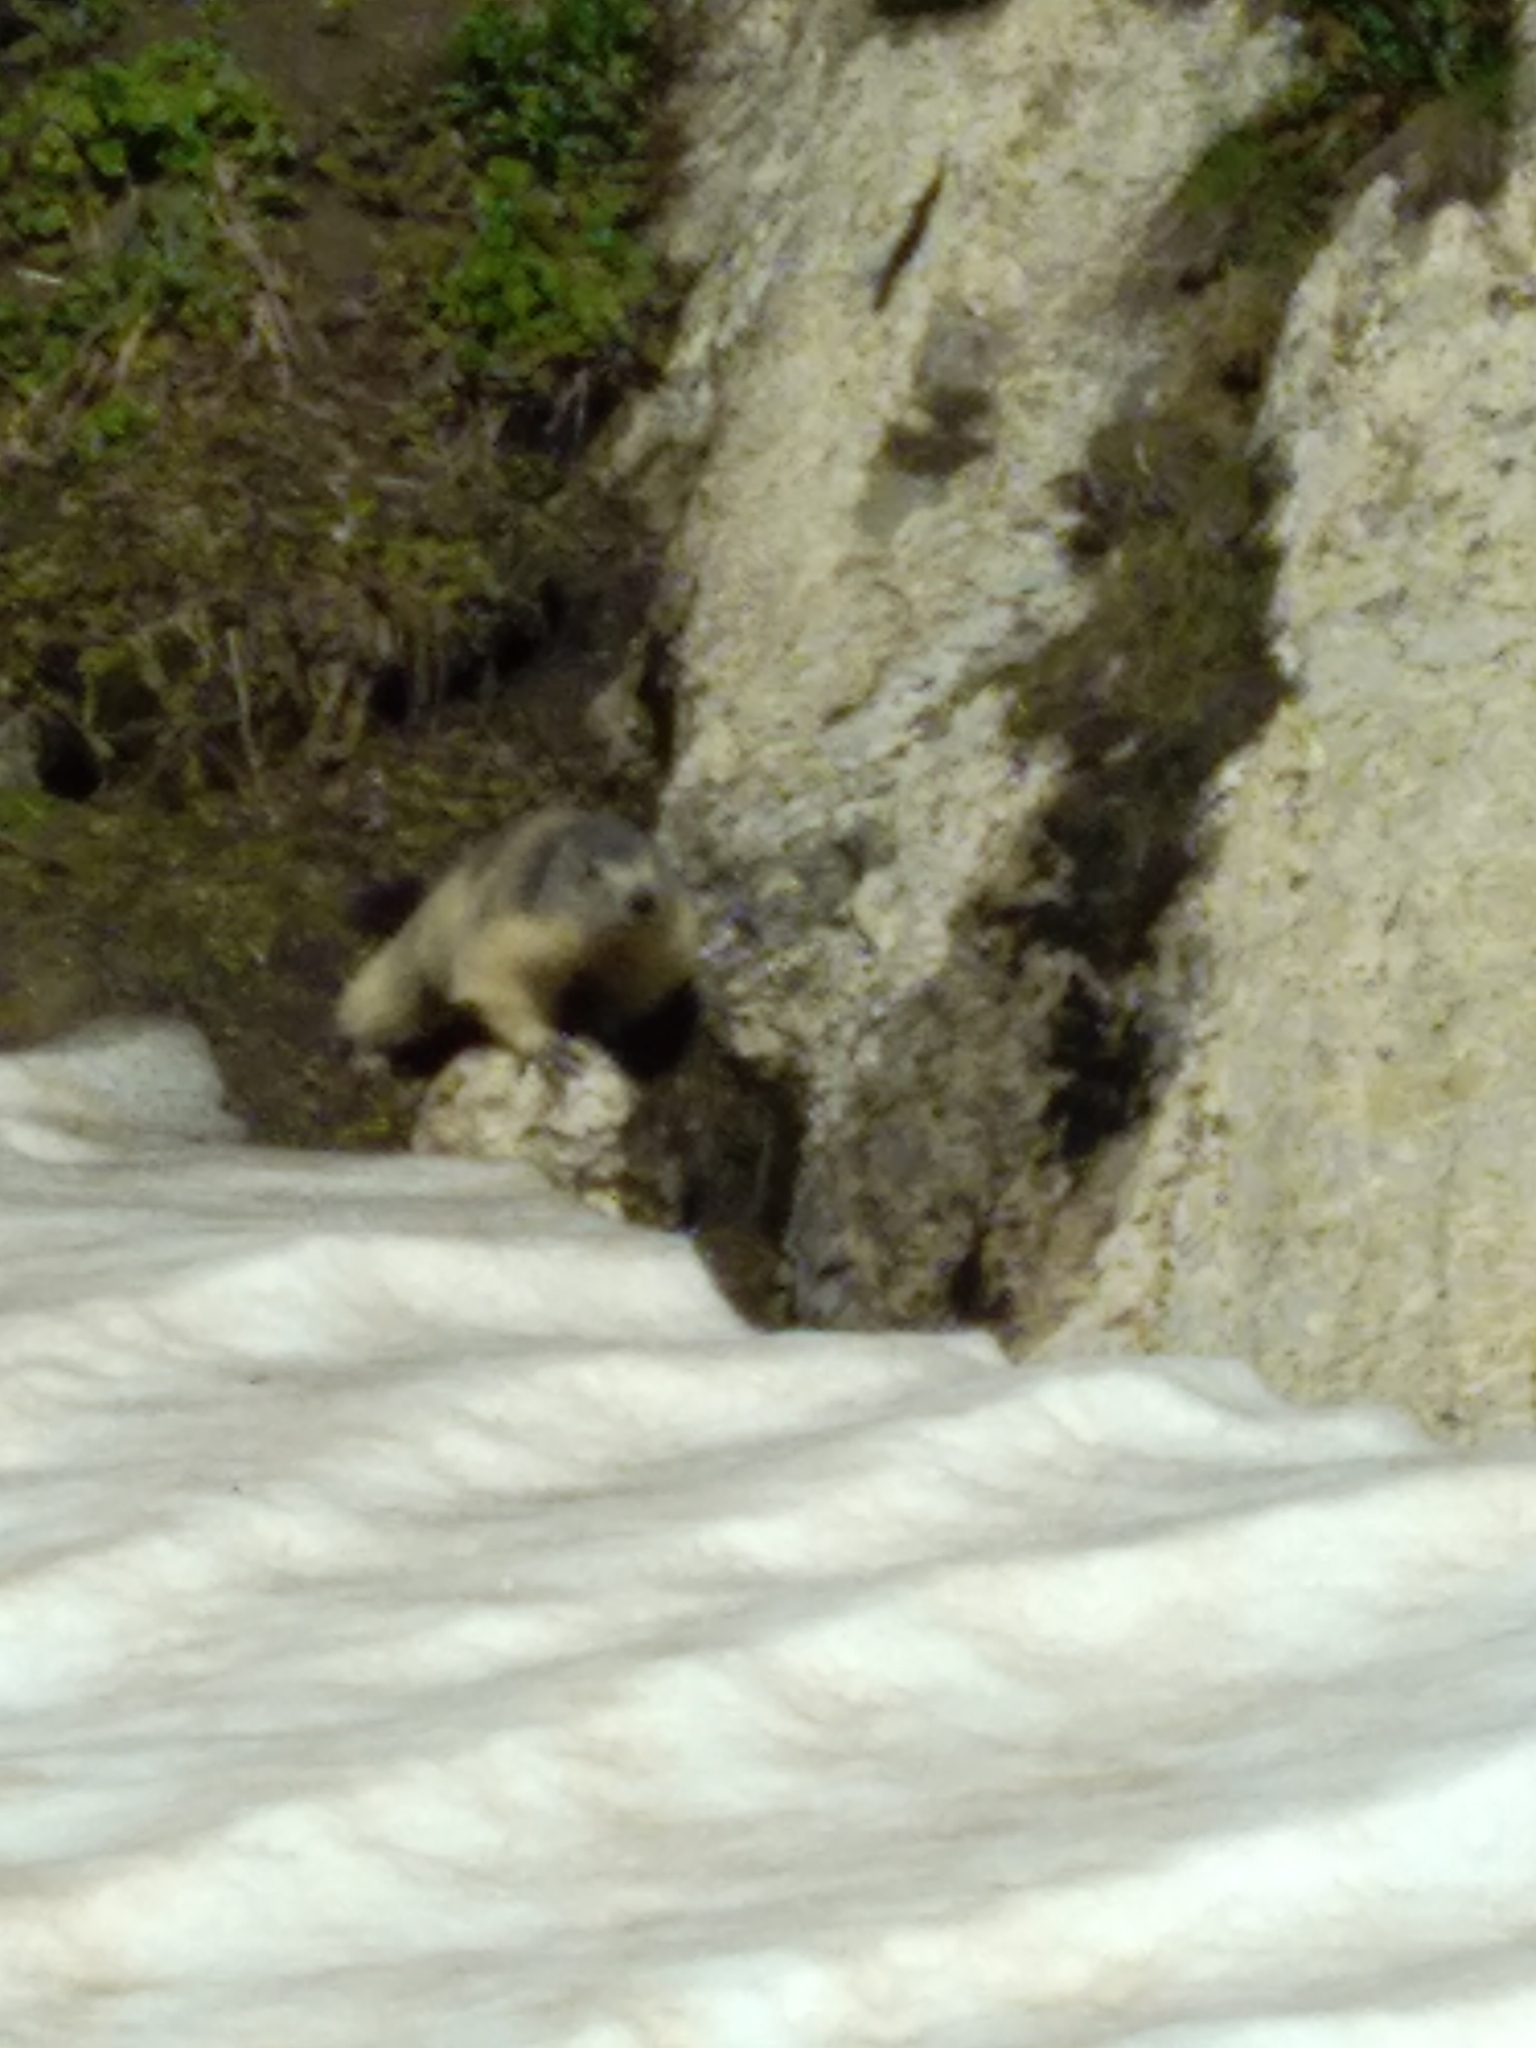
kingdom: Animalia
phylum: Chordata
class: Mammalia
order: Rodentia
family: Sciuridae
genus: Marmota
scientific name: Marmota marmota
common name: Alpine marmot
